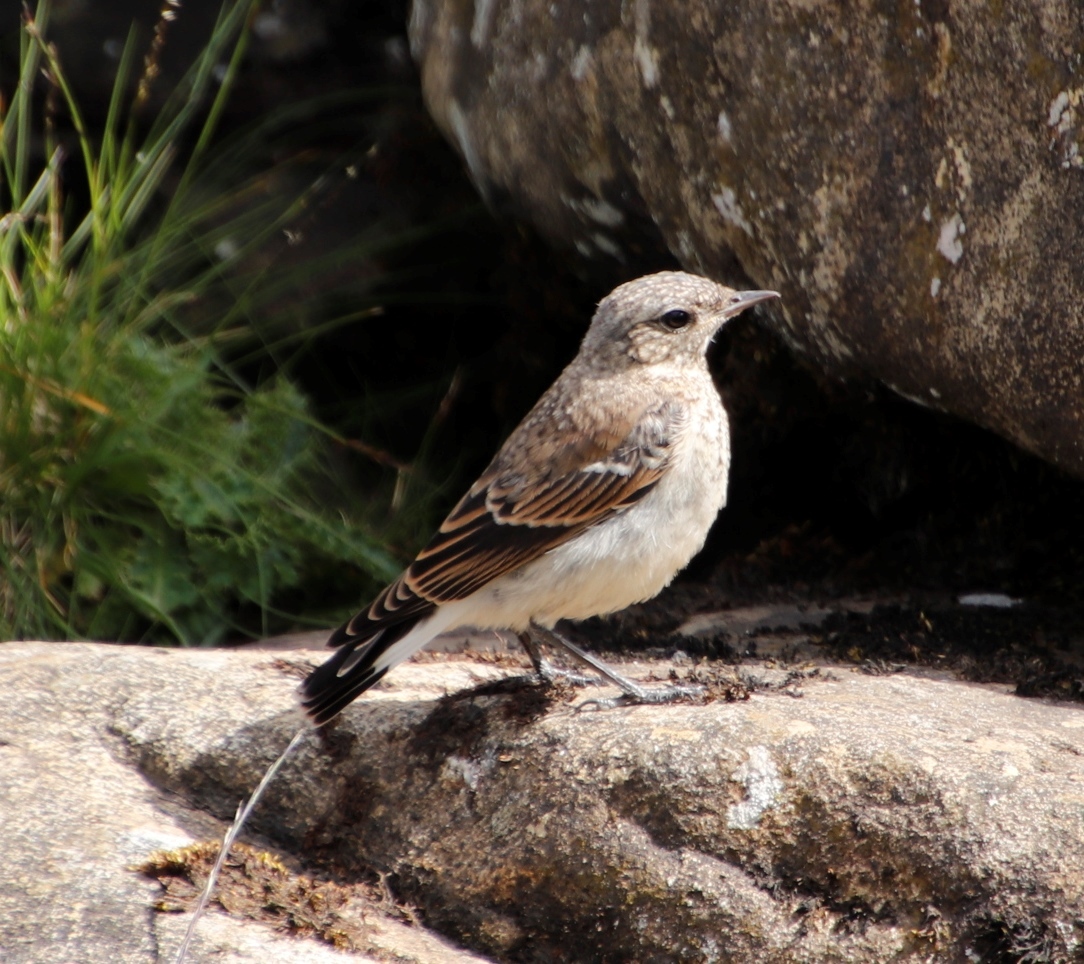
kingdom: Animalia
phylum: Chordata
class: Aves
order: Passeriformes
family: Muscicapidae
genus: Oenanthe
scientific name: Oenanthe oenanthe
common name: Northern wheatear
